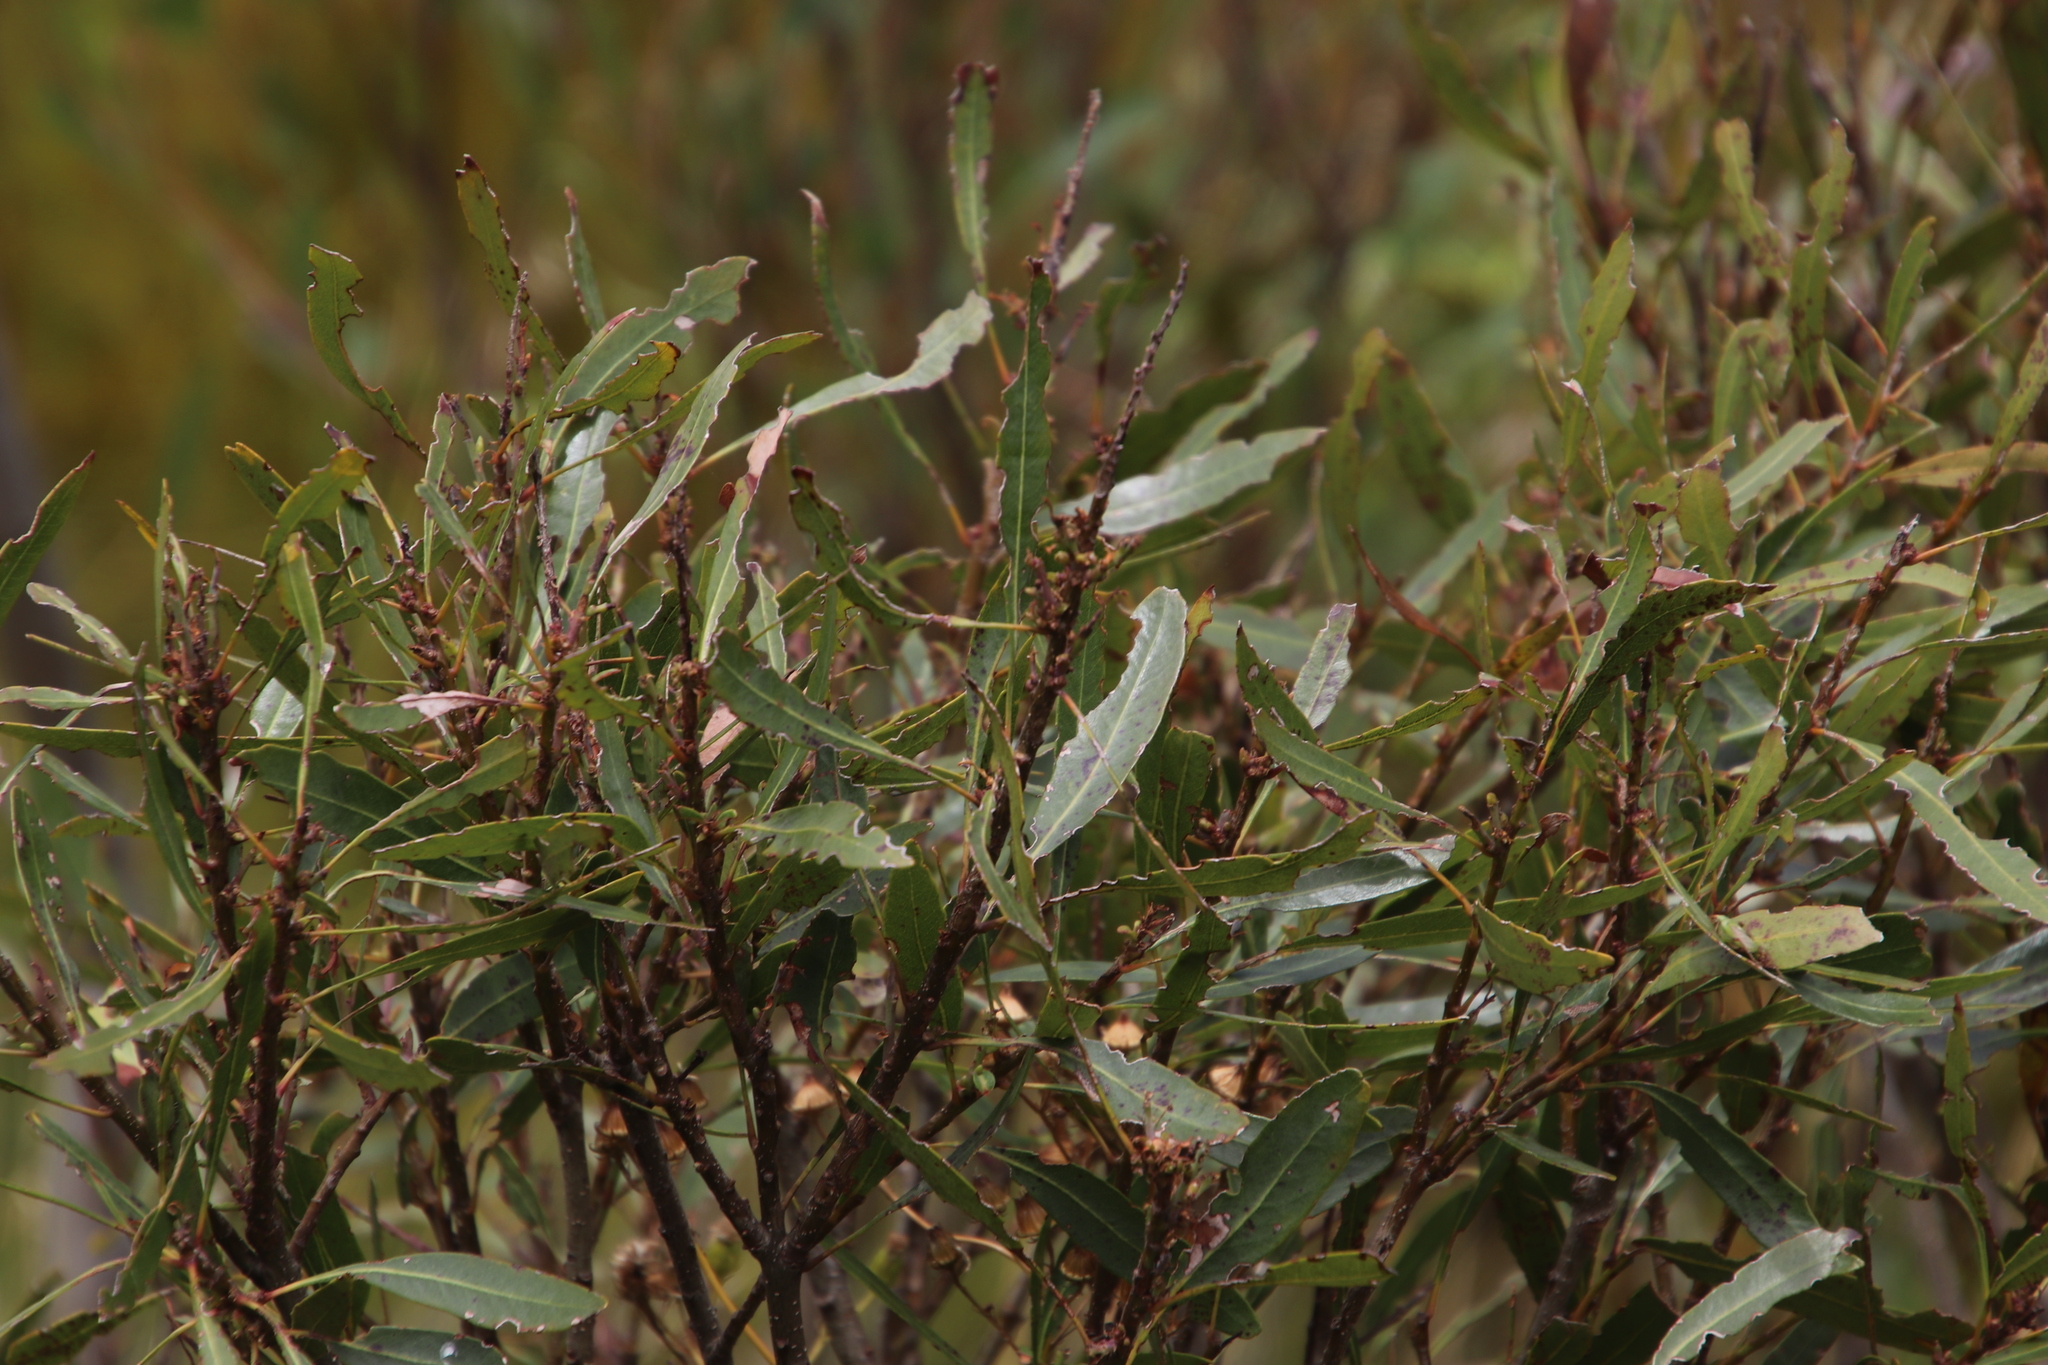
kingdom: Plantae
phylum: Tracheophyta
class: Magnoliopsida
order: Fagales
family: Myricaceae
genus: Morella
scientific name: Morella serrata
